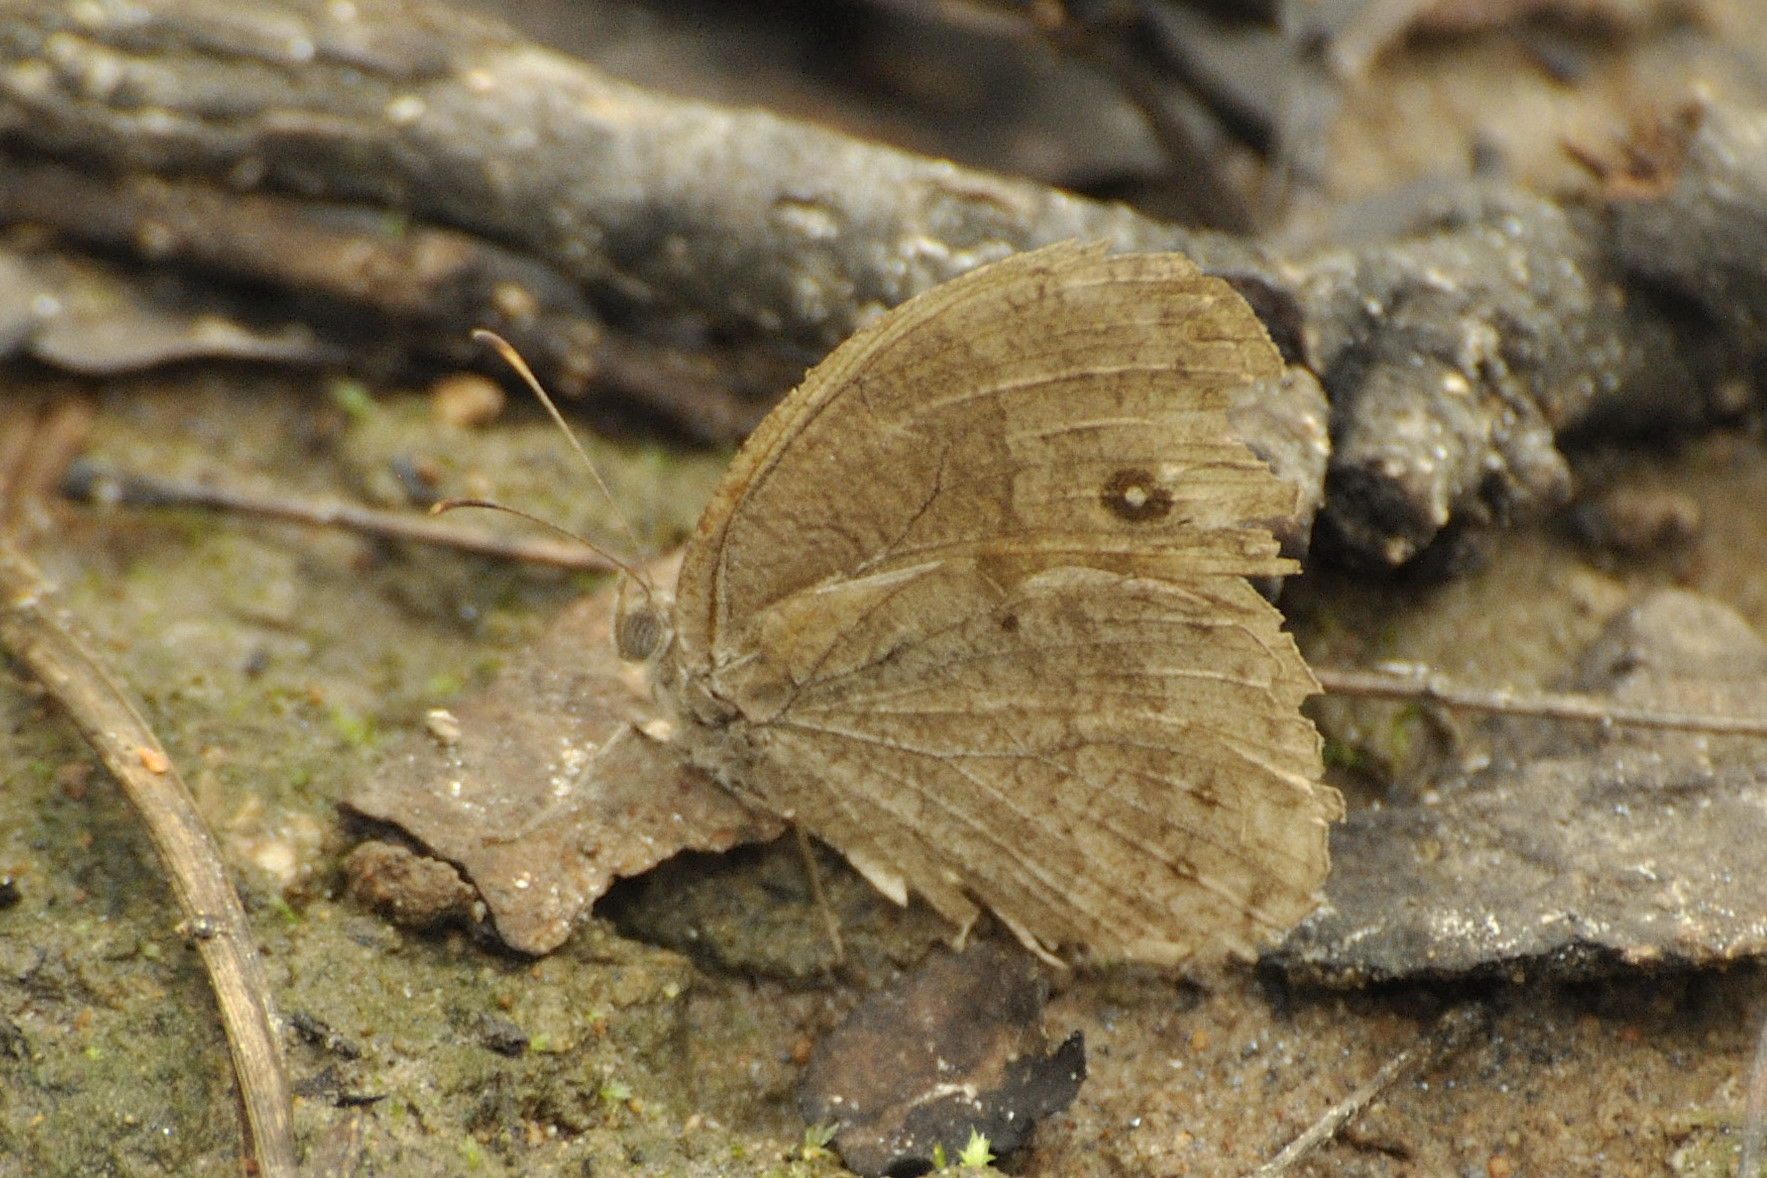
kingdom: Animalia
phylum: Arthropoda
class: Insecta
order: Lepidoptera
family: Nymphalidae
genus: Bicyclus
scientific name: Bicyclus angulosa
